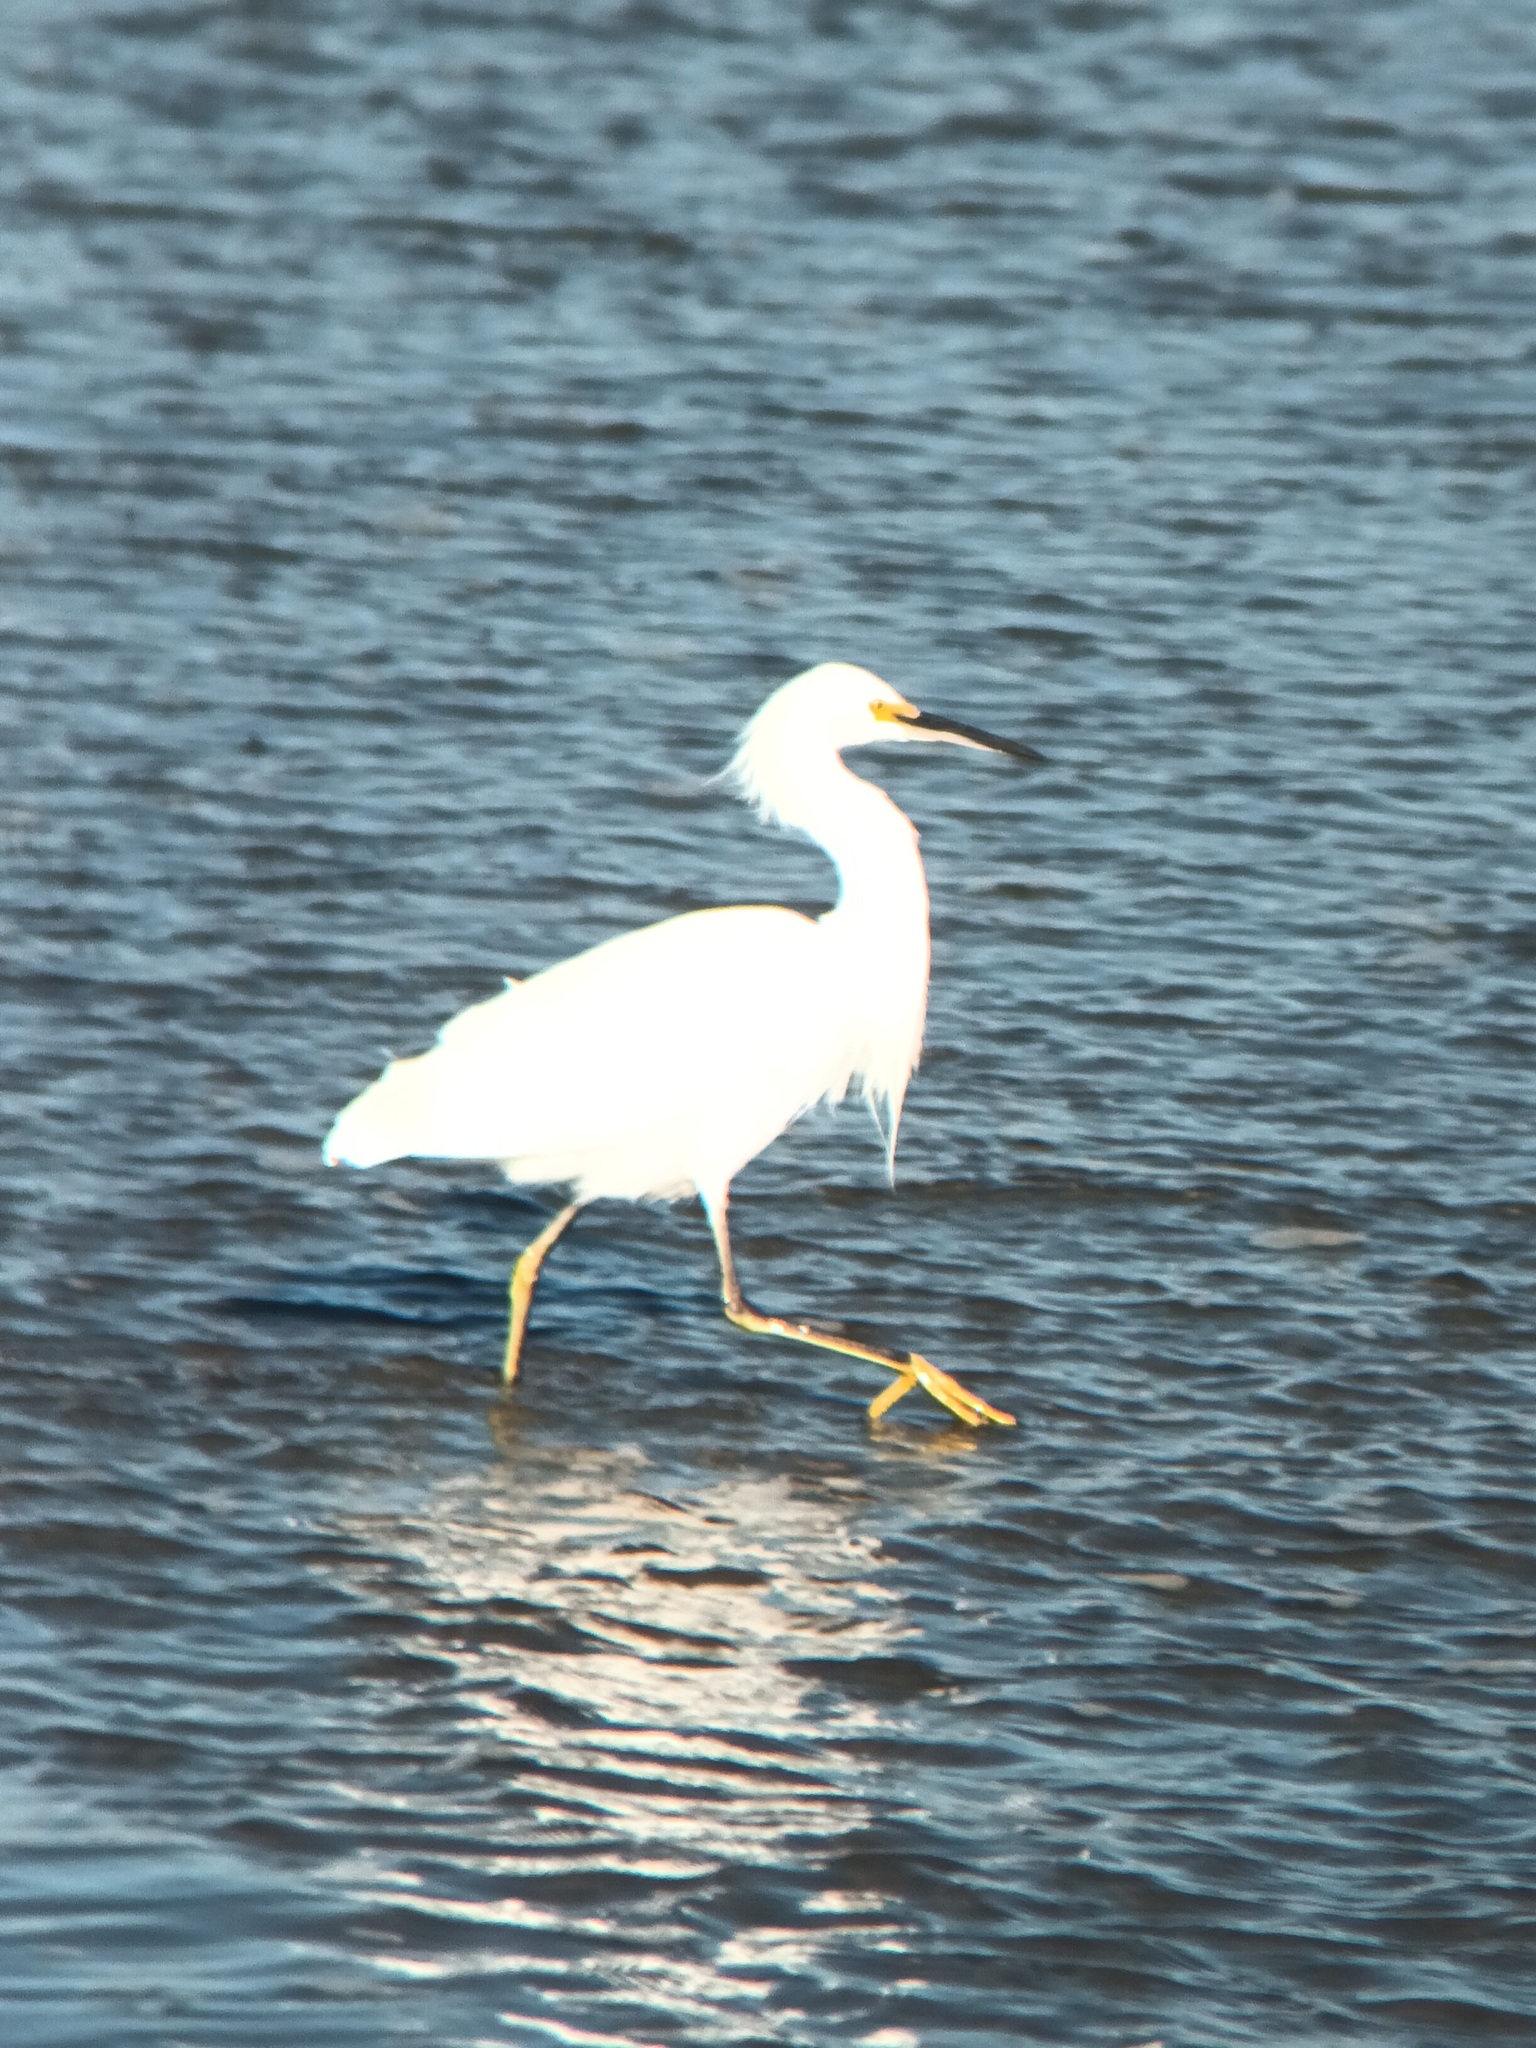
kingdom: Animalia
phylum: Chordata
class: Aves
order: Pelecaniformes
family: Ardeidae
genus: Egretta
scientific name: Egretta thula
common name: Snowy egret
